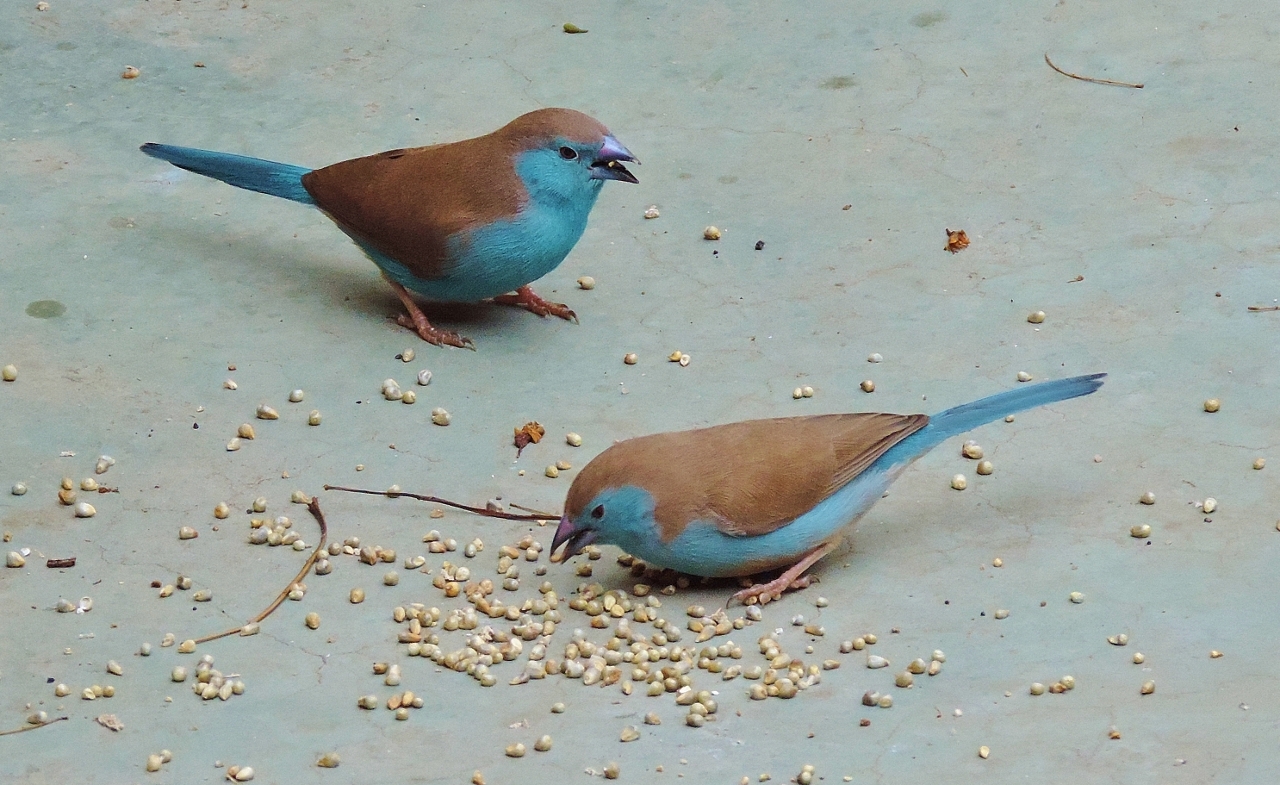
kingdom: Animalia
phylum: Chordata
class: Aves
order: Passeriformes
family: Estrildidae
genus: Uraeginthus
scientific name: Uraeginthus angolensis
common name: Blue waxbill
